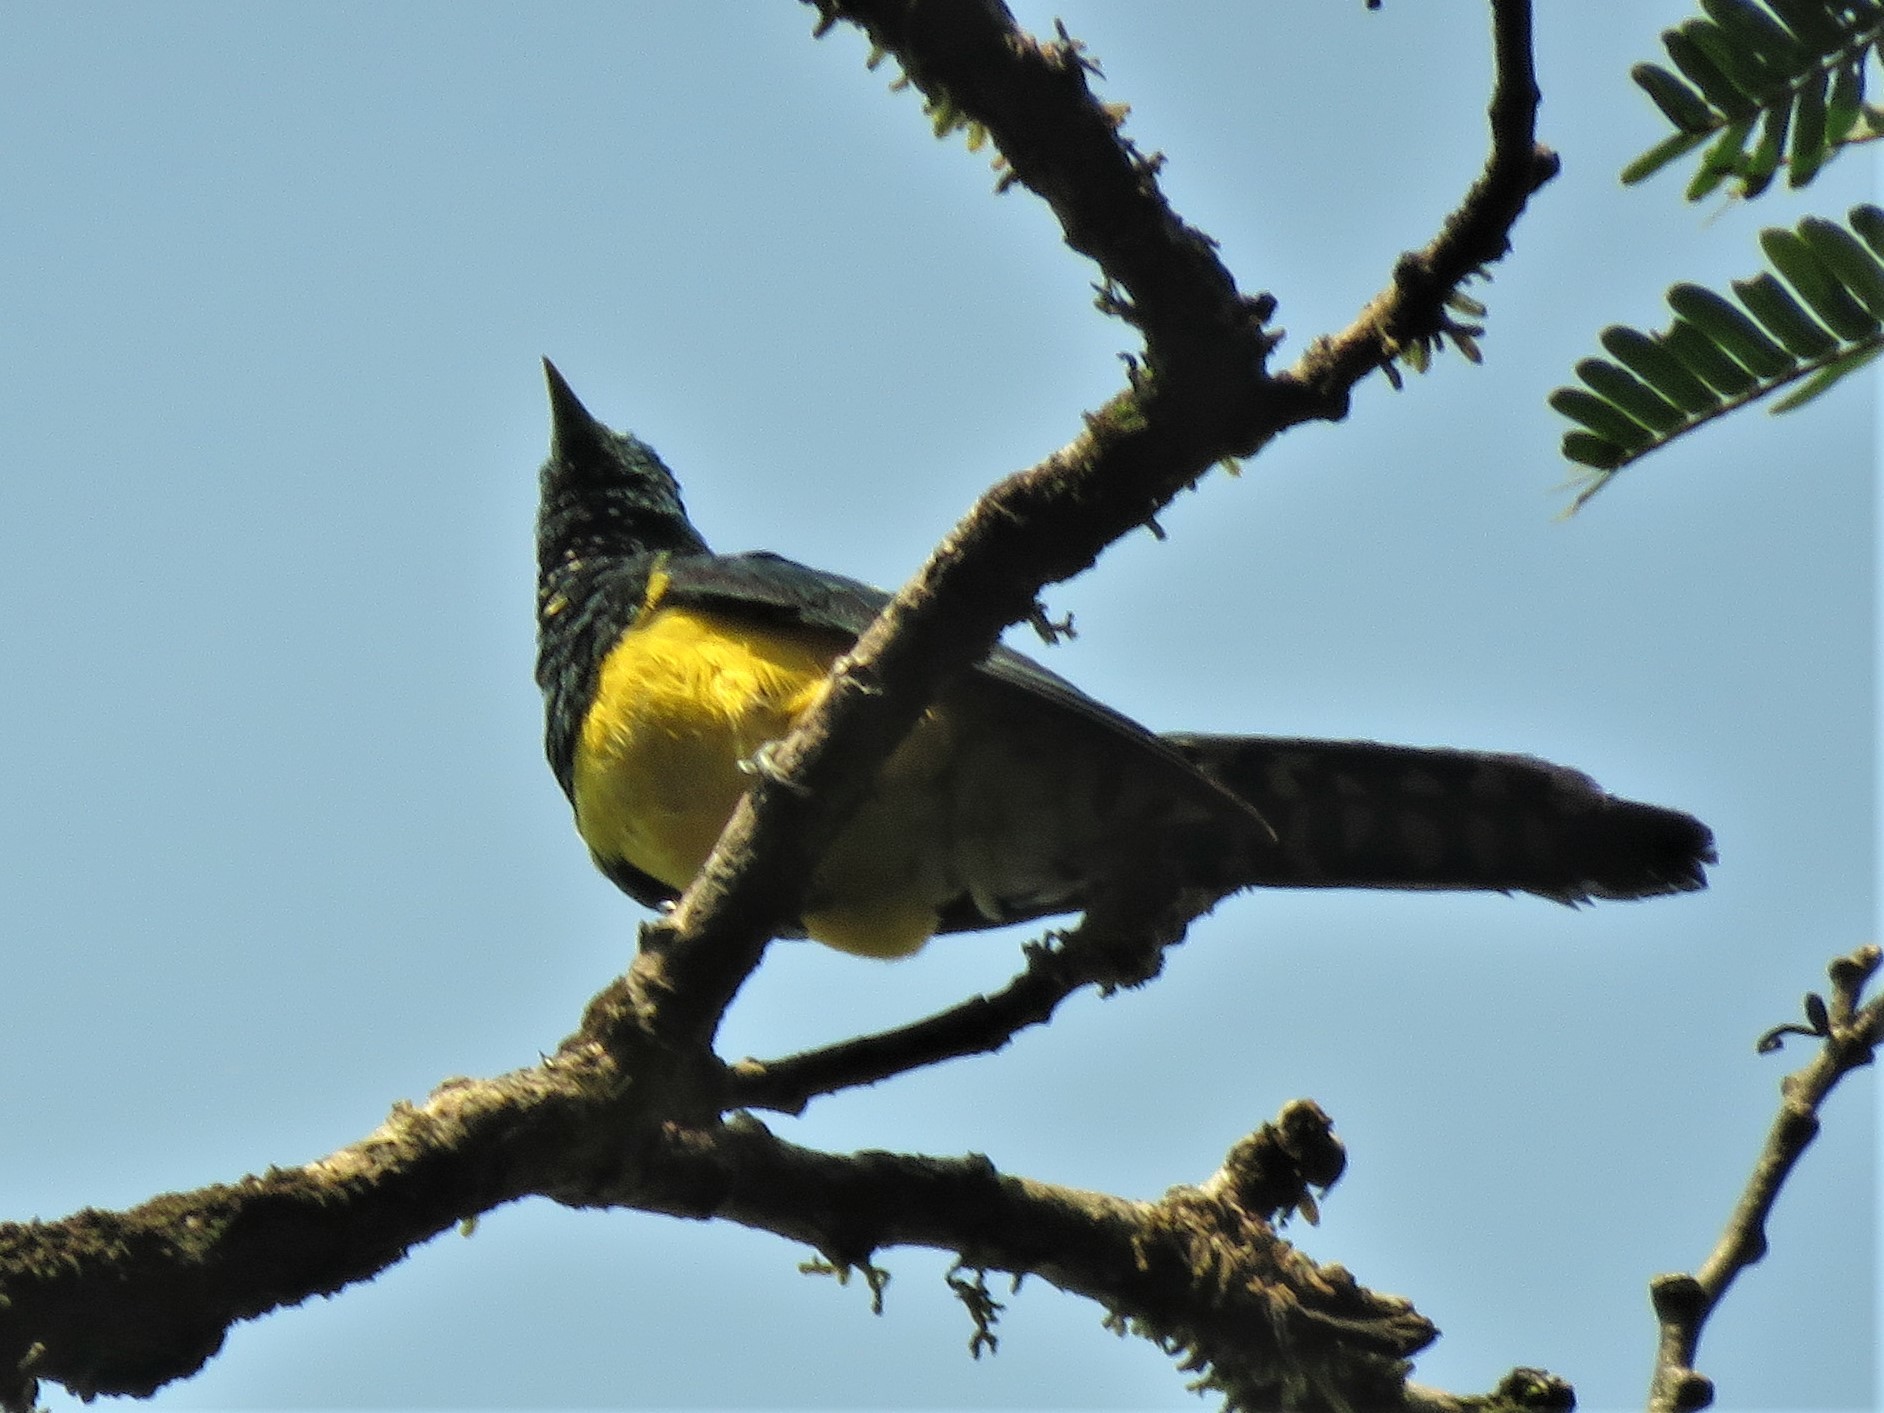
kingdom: Animalia
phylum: Chordata
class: Aves
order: Cuculiformes
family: Cuculidae
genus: Chrysococcyx
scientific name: Chrysococcyx cupreus
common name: African emerald cuckoo
